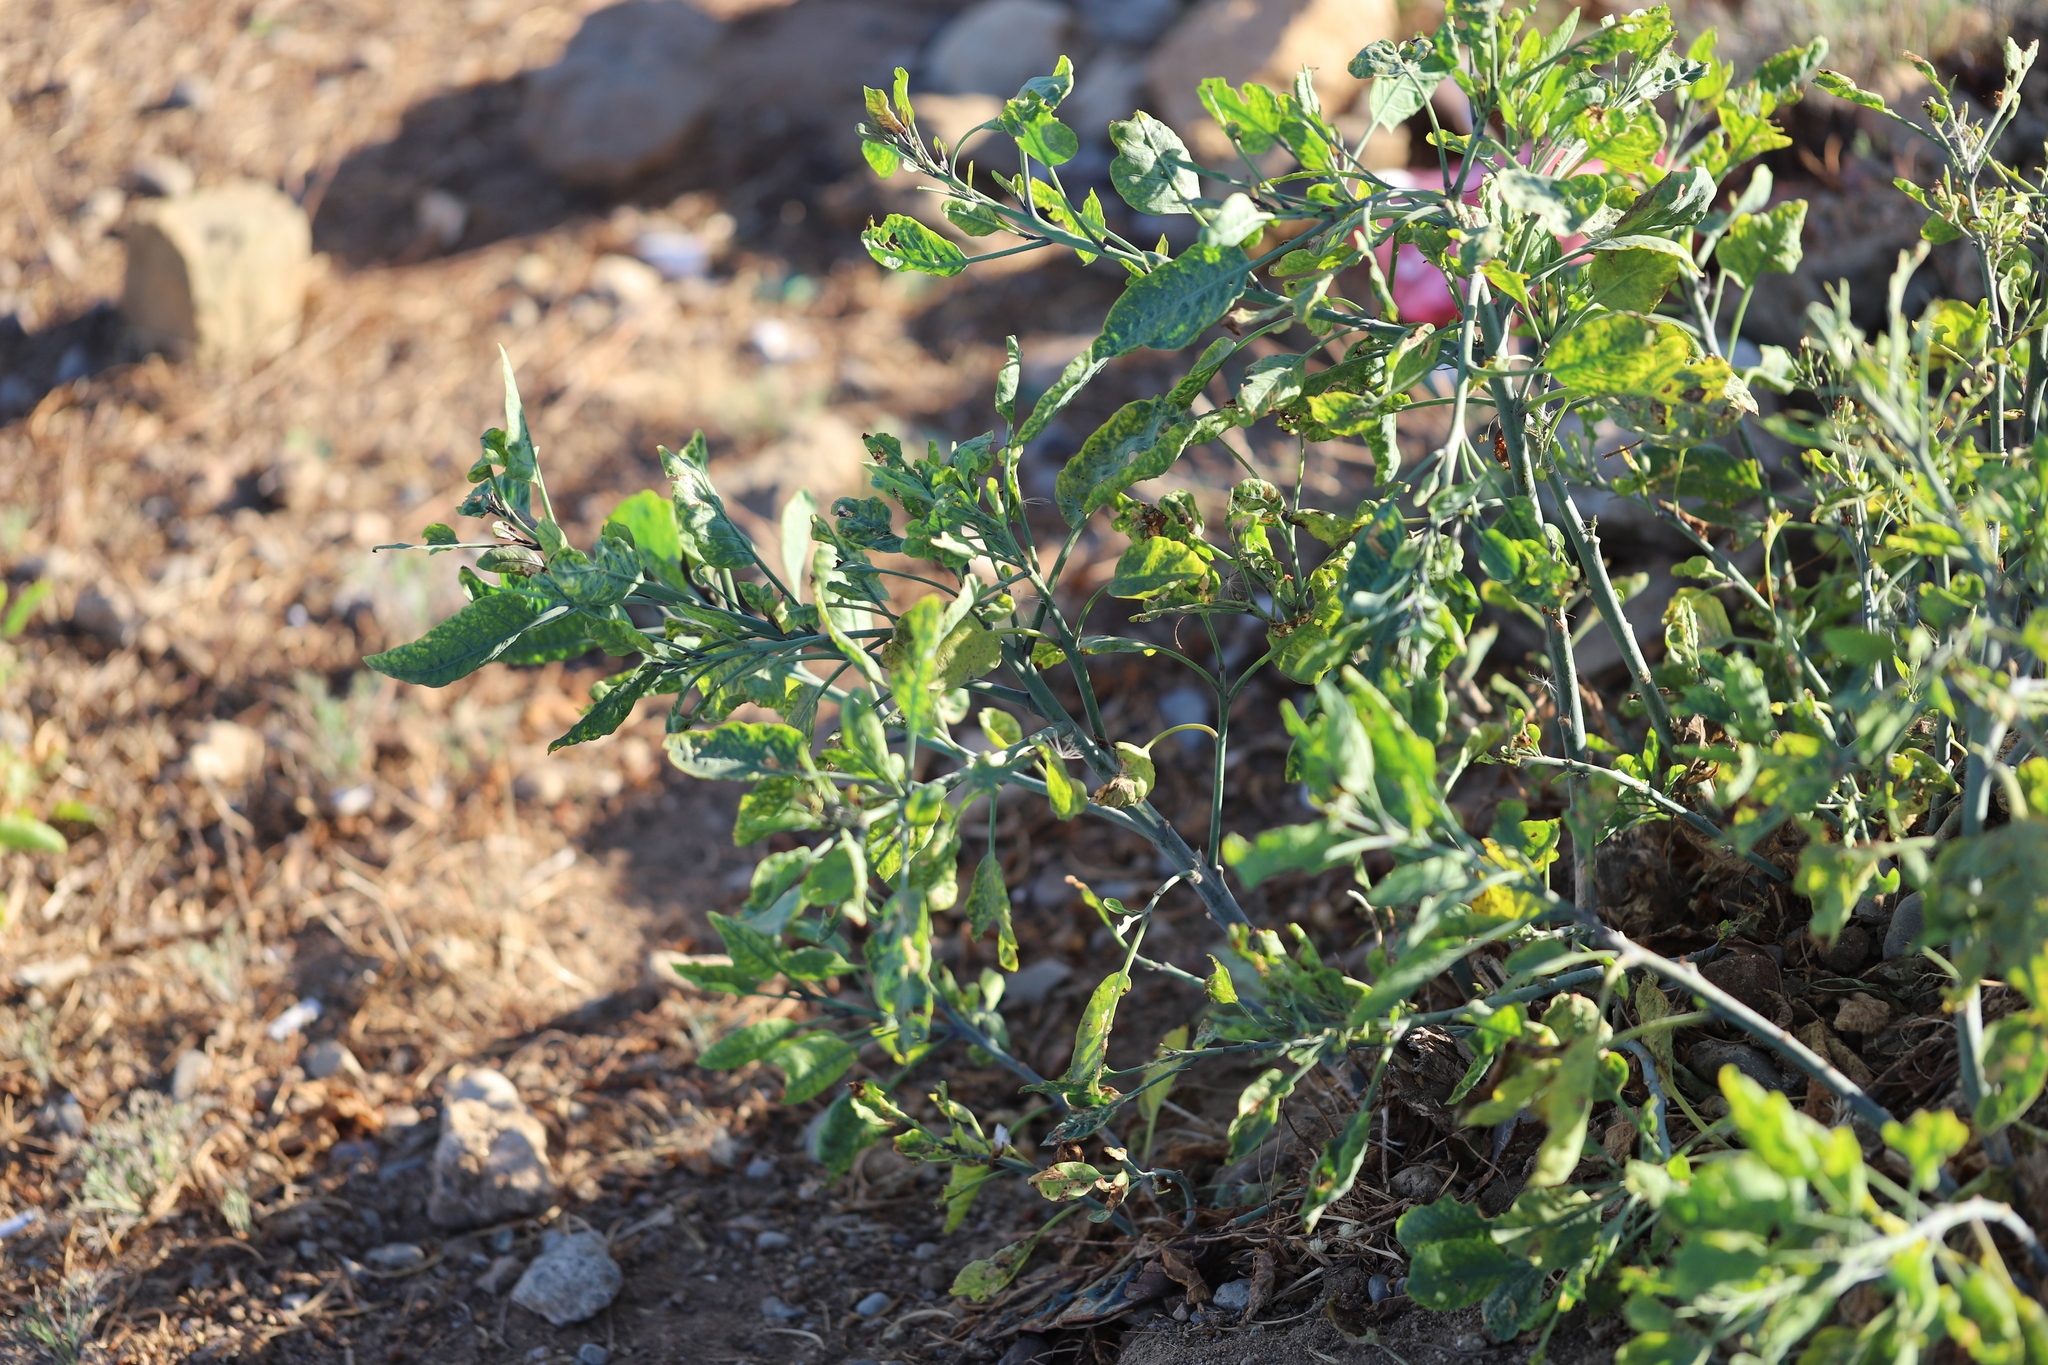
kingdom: Plantae
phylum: Tracheophyta
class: Magnoliopsida
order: Solanales
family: Solanaceae
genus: Nicotiana
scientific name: Nicotiana glauca
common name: Tree tobacco
